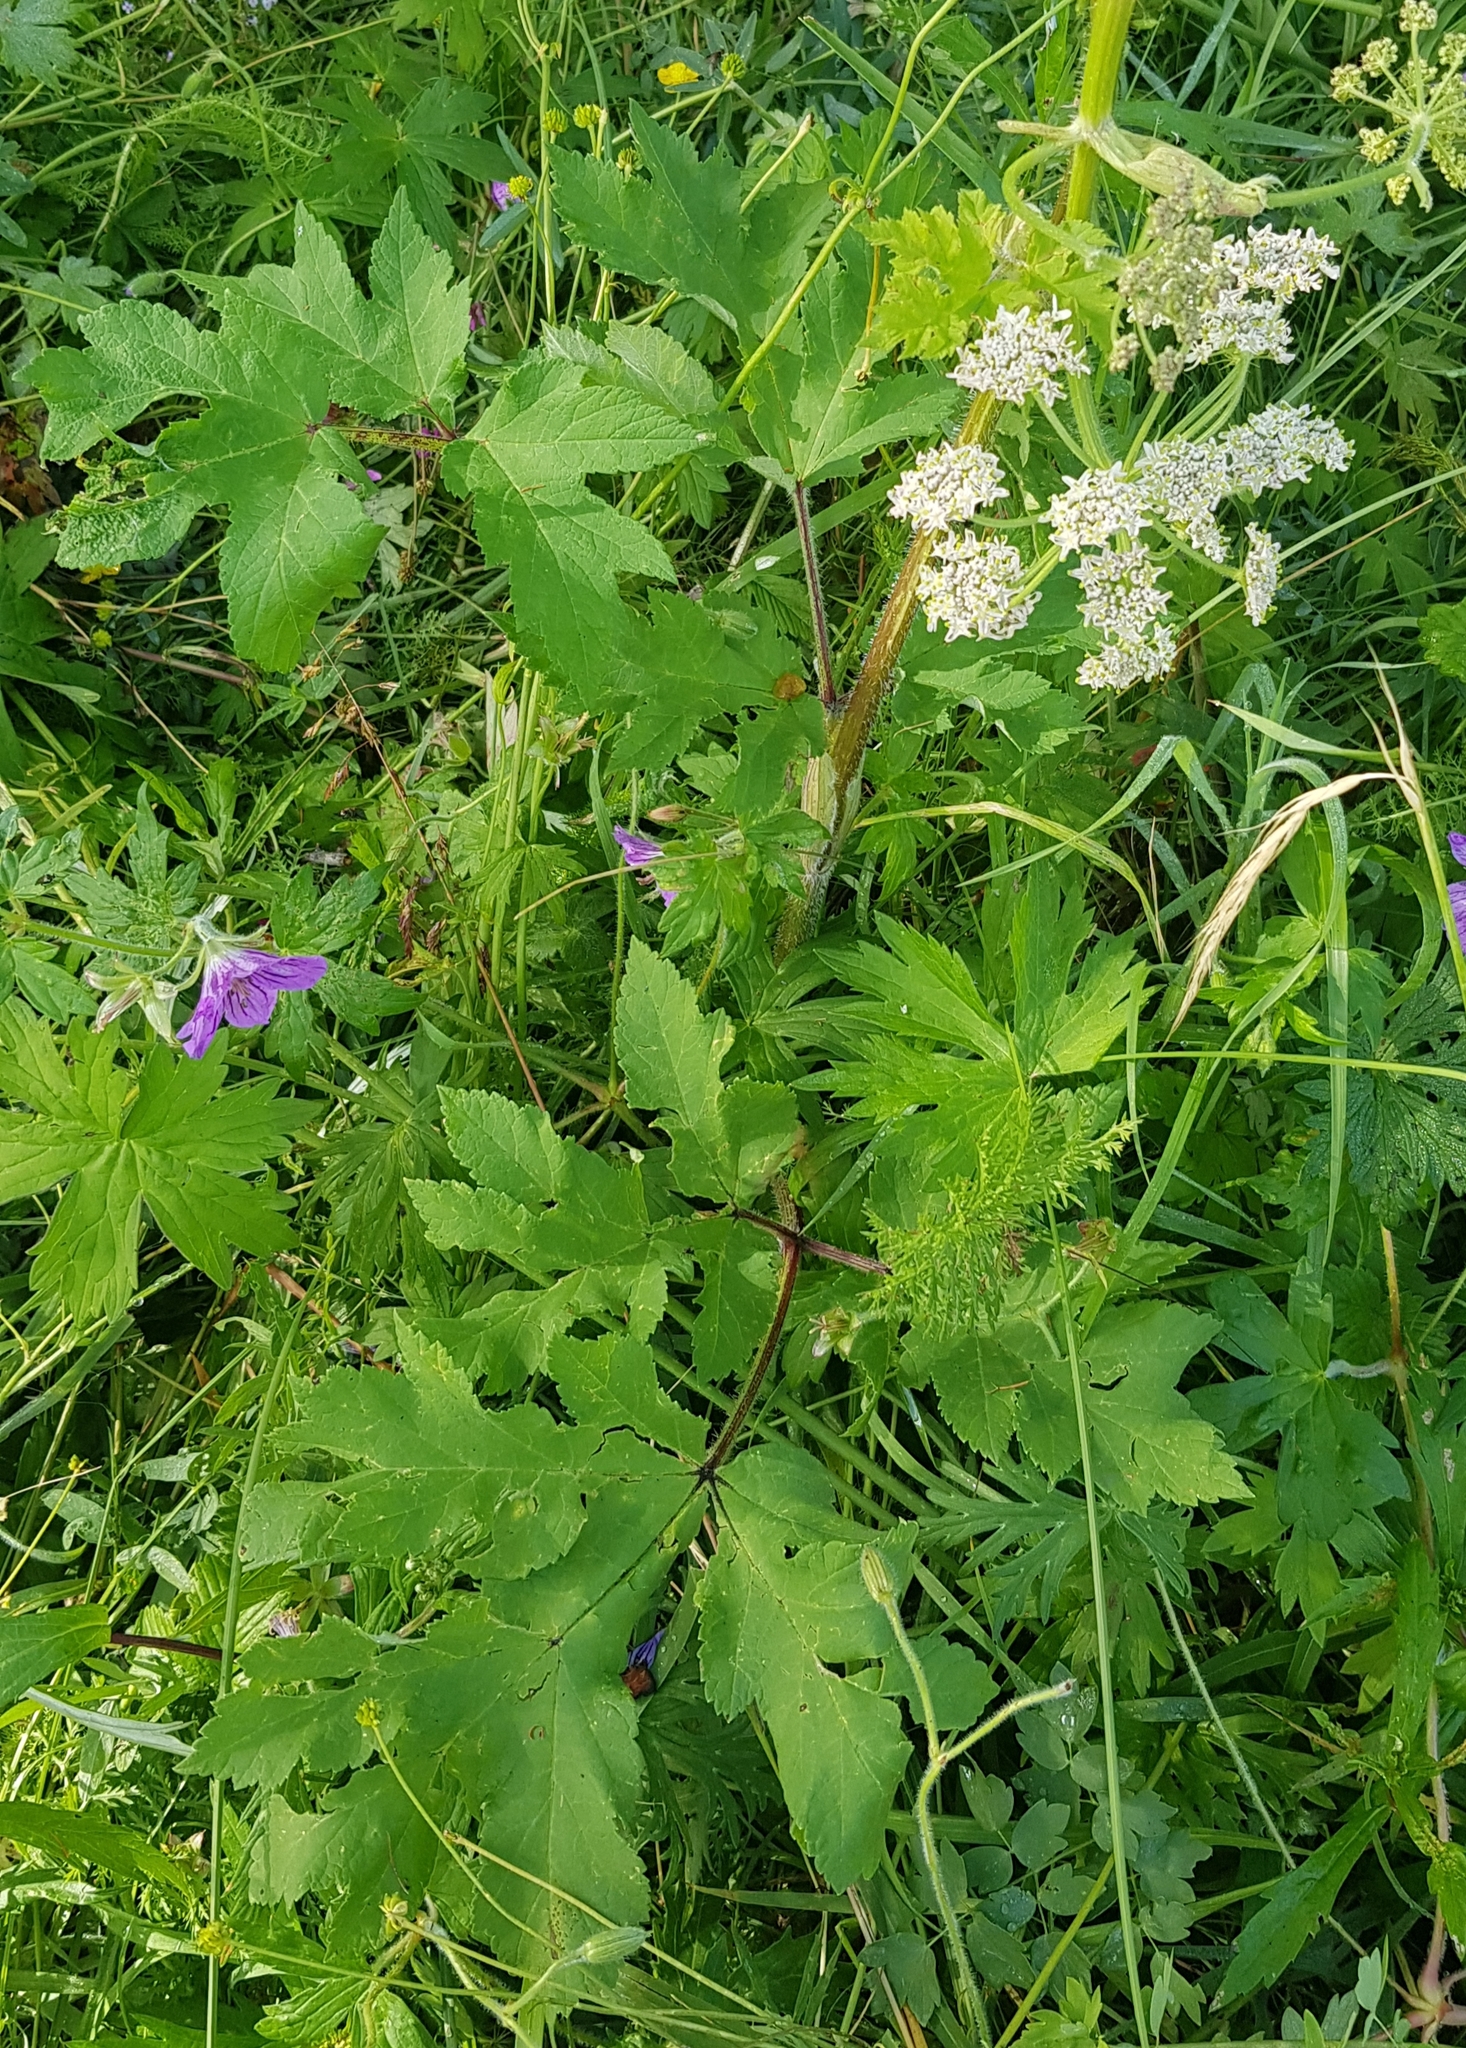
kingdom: Plantae
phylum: Tracheophyta
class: Magnoliopsida
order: Apiales
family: Apiaceae
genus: Heracleum
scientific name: Heracleum dissectum
